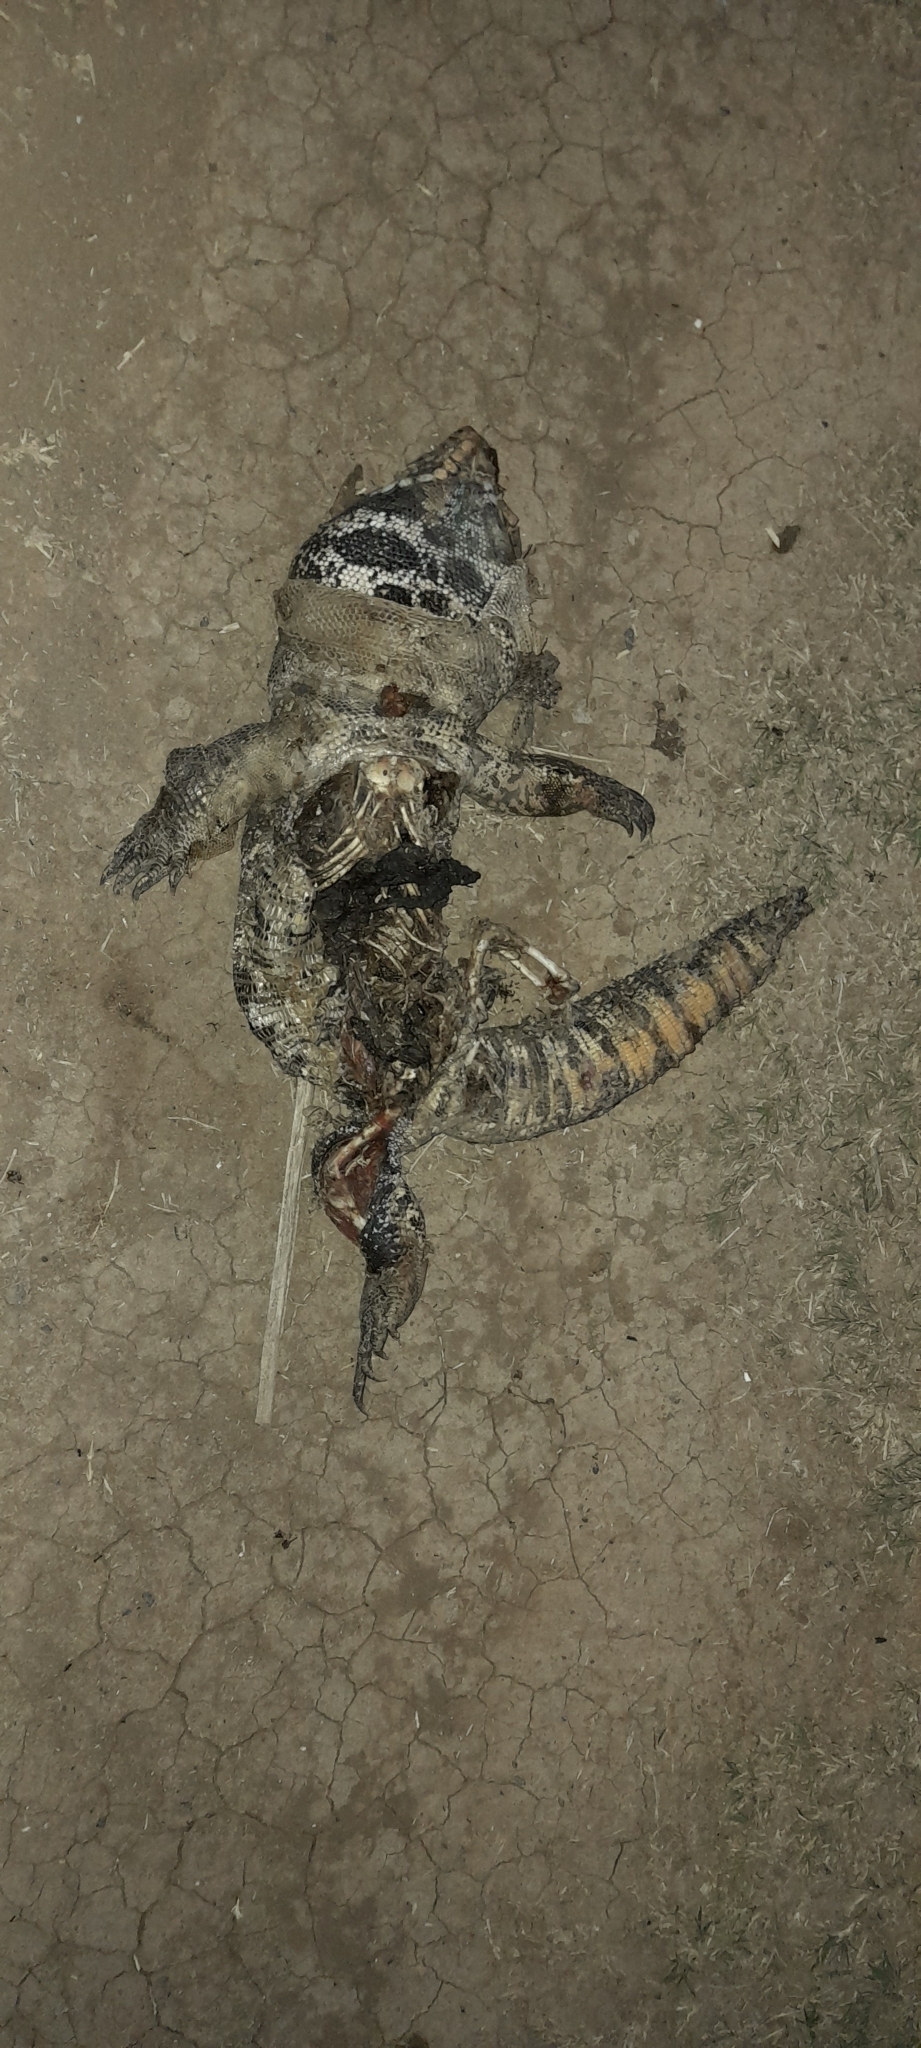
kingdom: Animalia
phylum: Chordata
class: Squamata
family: Teiidae
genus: Salvator
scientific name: Salvator merianae
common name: Argentine black and white tegu
